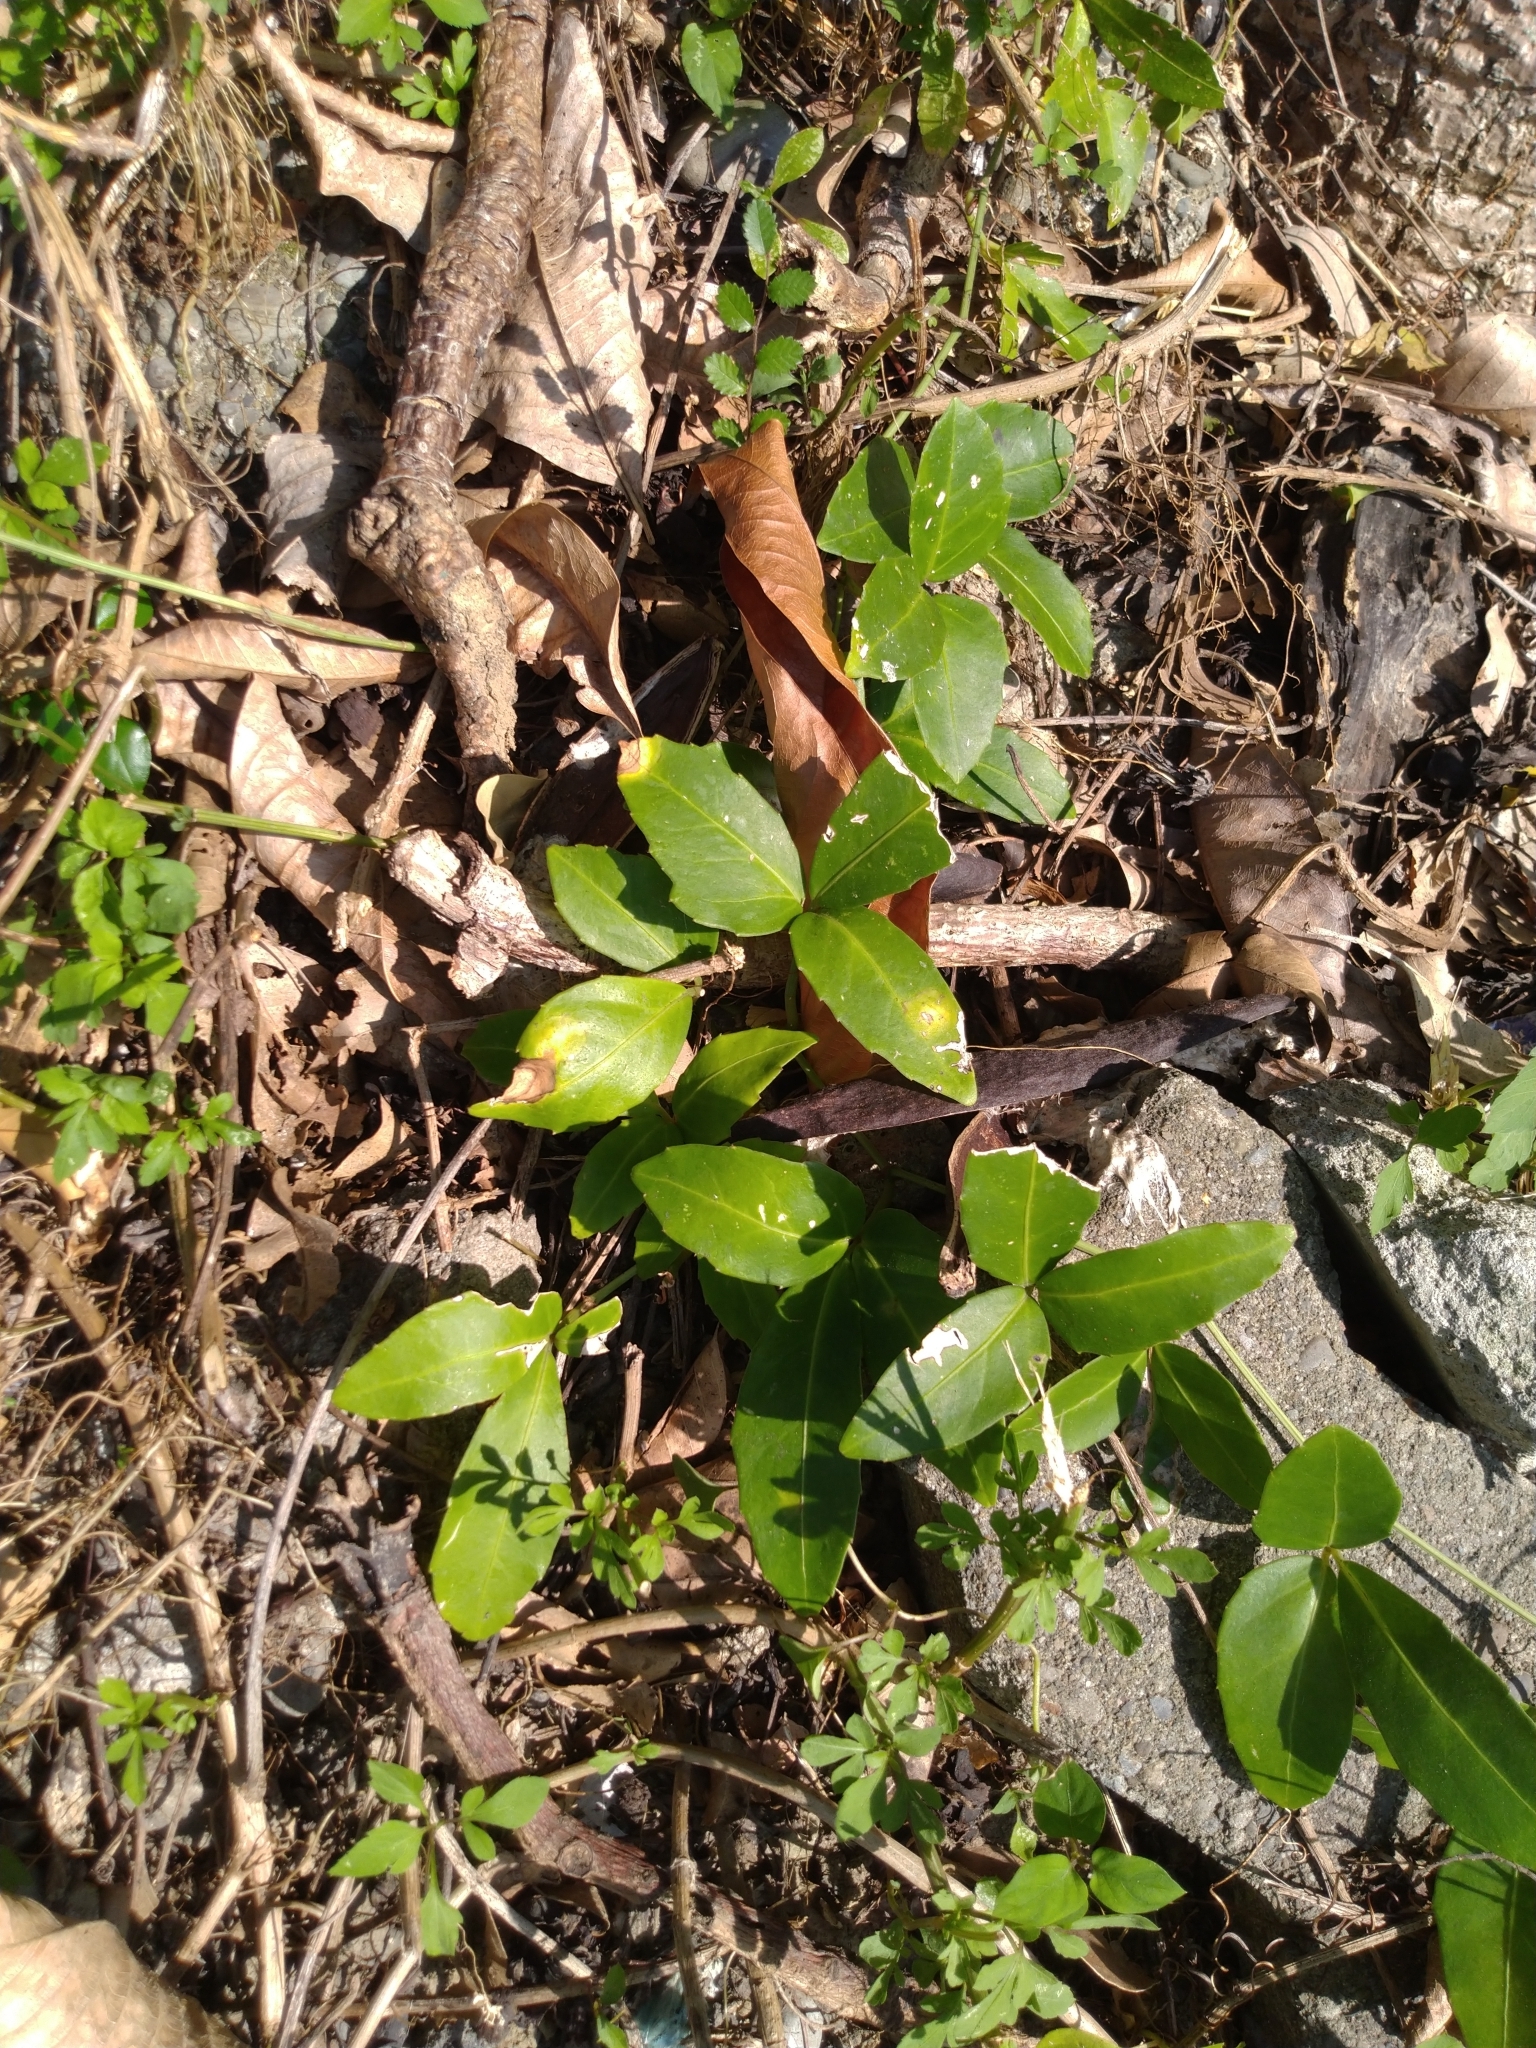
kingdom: Plantae
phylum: Tracheophyta
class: Magnoliopsida
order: Vitales
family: Vitaceae
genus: Tetrastigma
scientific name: Tetrastigma formosanum
